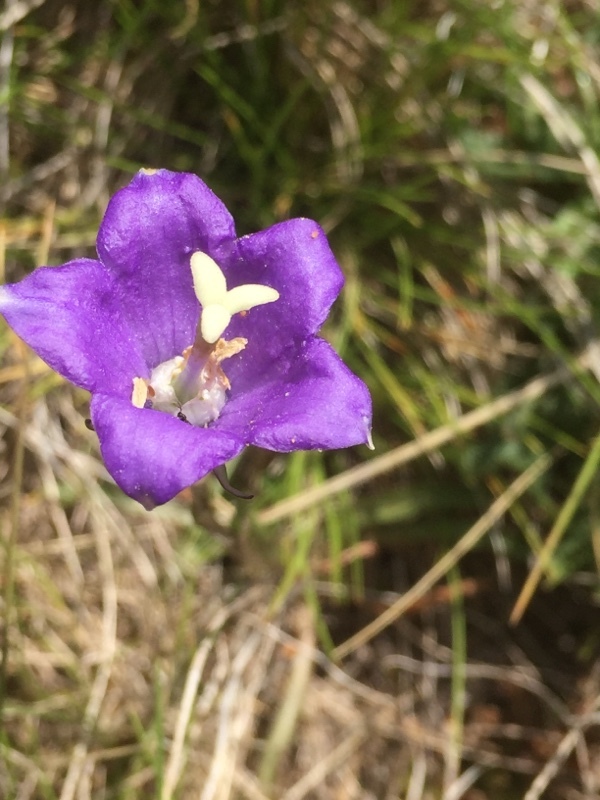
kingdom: Plantae
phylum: Tracheophyta
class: Magnoliopsida
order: Asterales
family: Campanulaceae
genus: Campanula
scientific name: Campanula herminii
